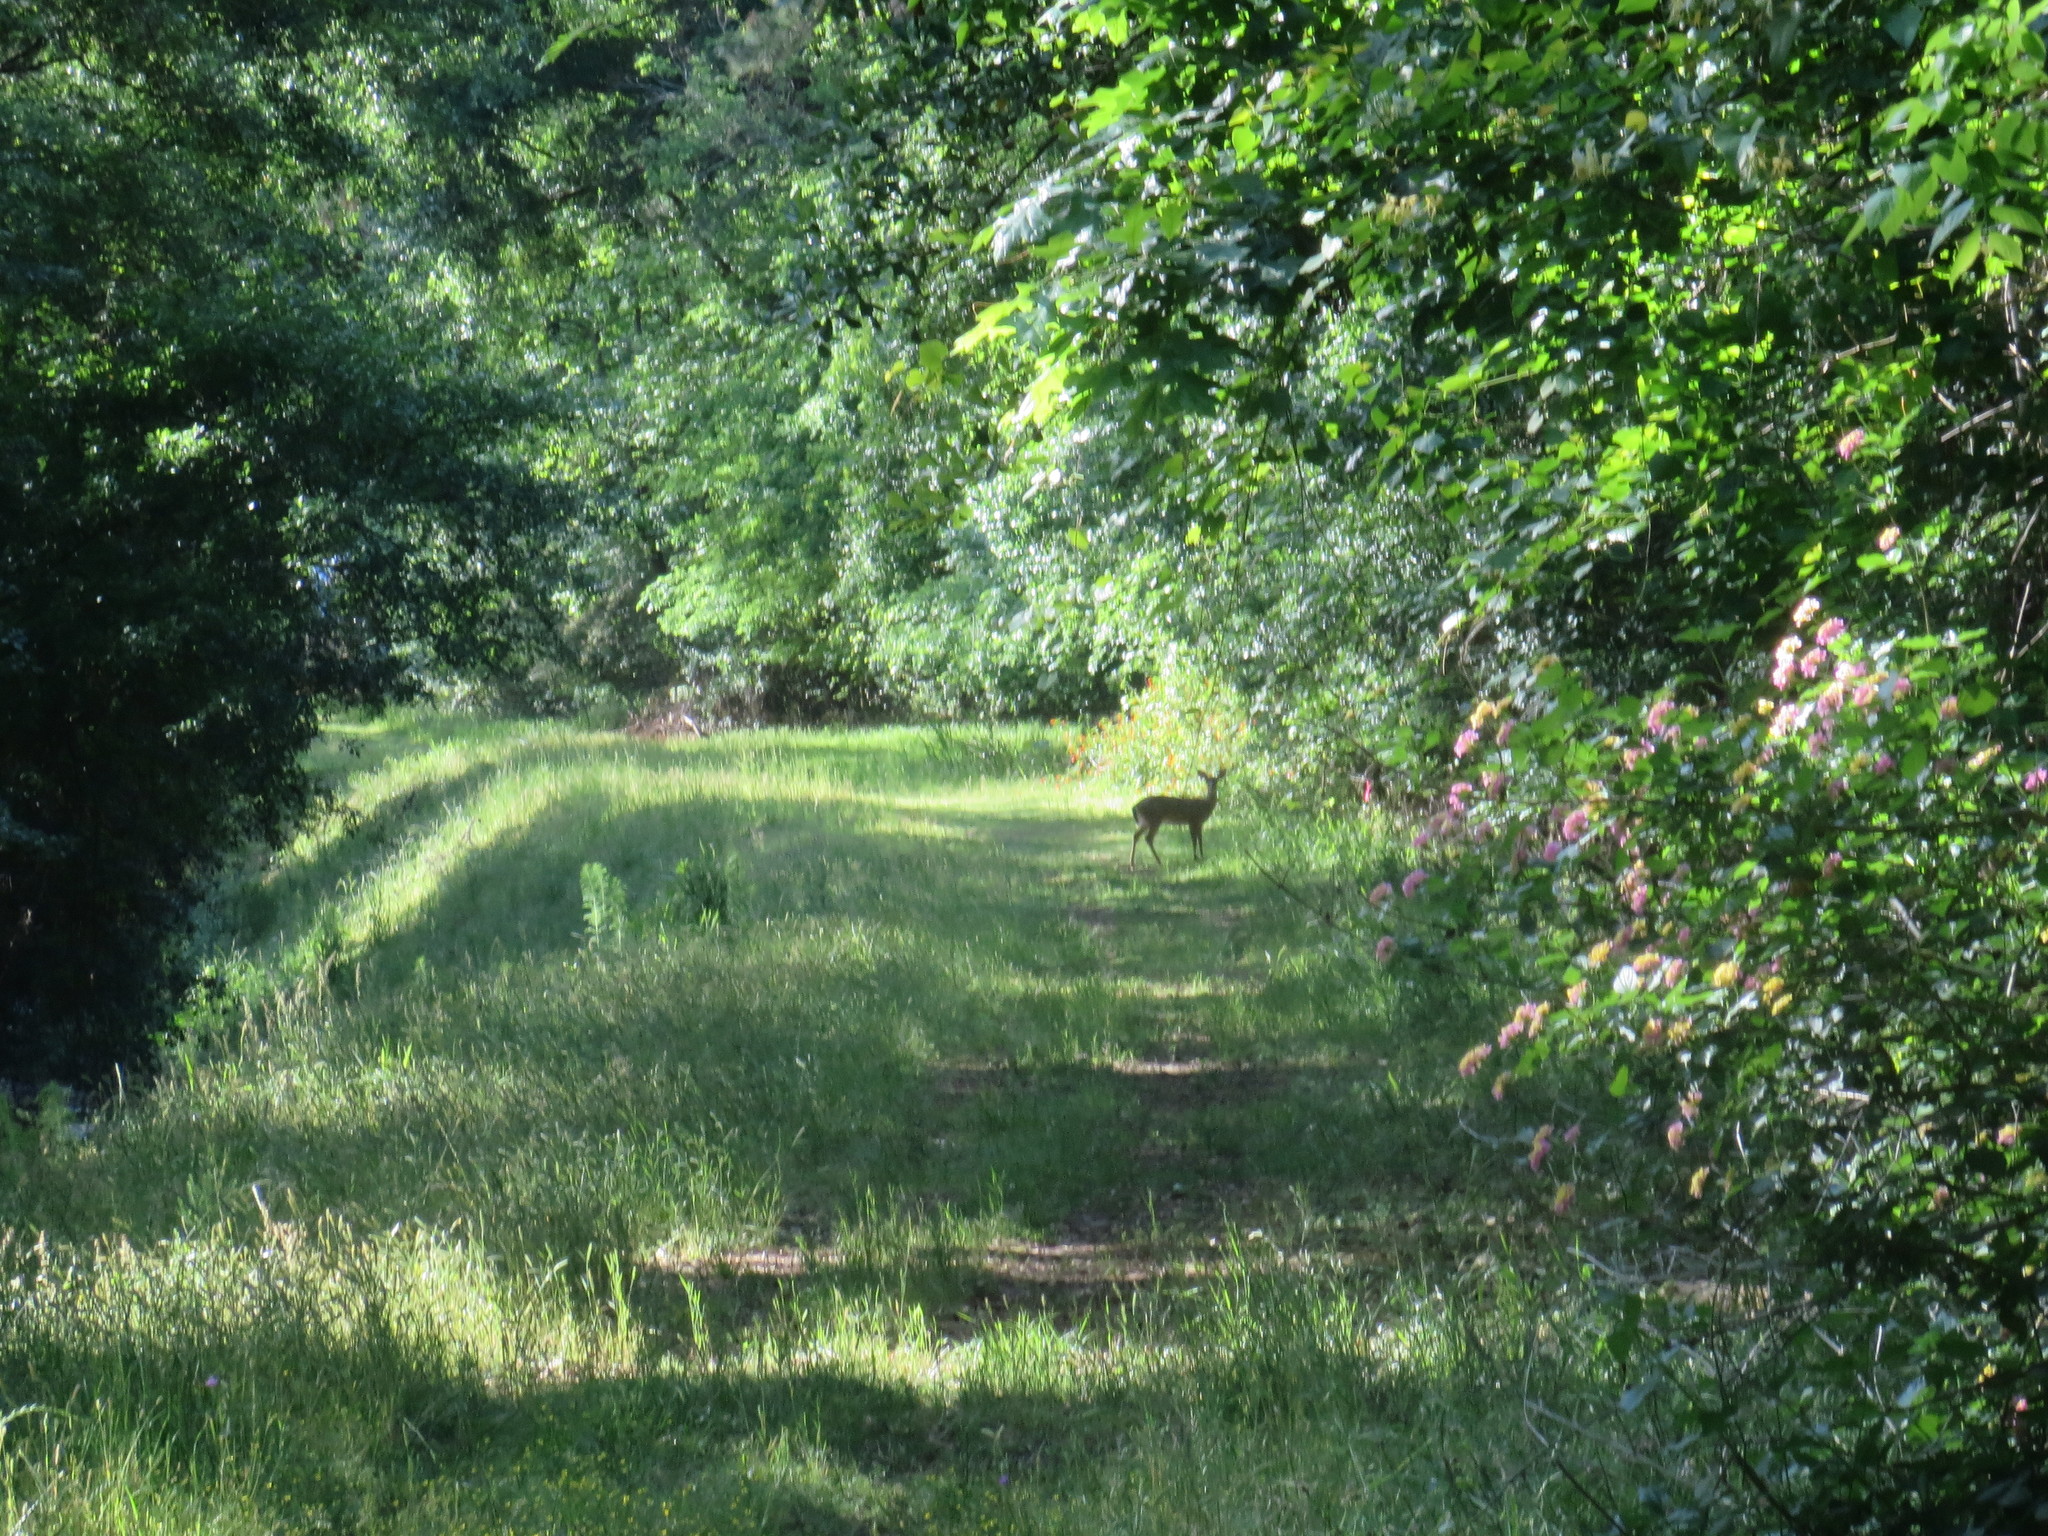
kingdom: Animalia
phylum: Chordata
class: Mammalia
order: Artiodactyla
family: Cervidae
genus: Odocoileus
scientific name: Odocoileus virginianus
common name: White-tailed deer
